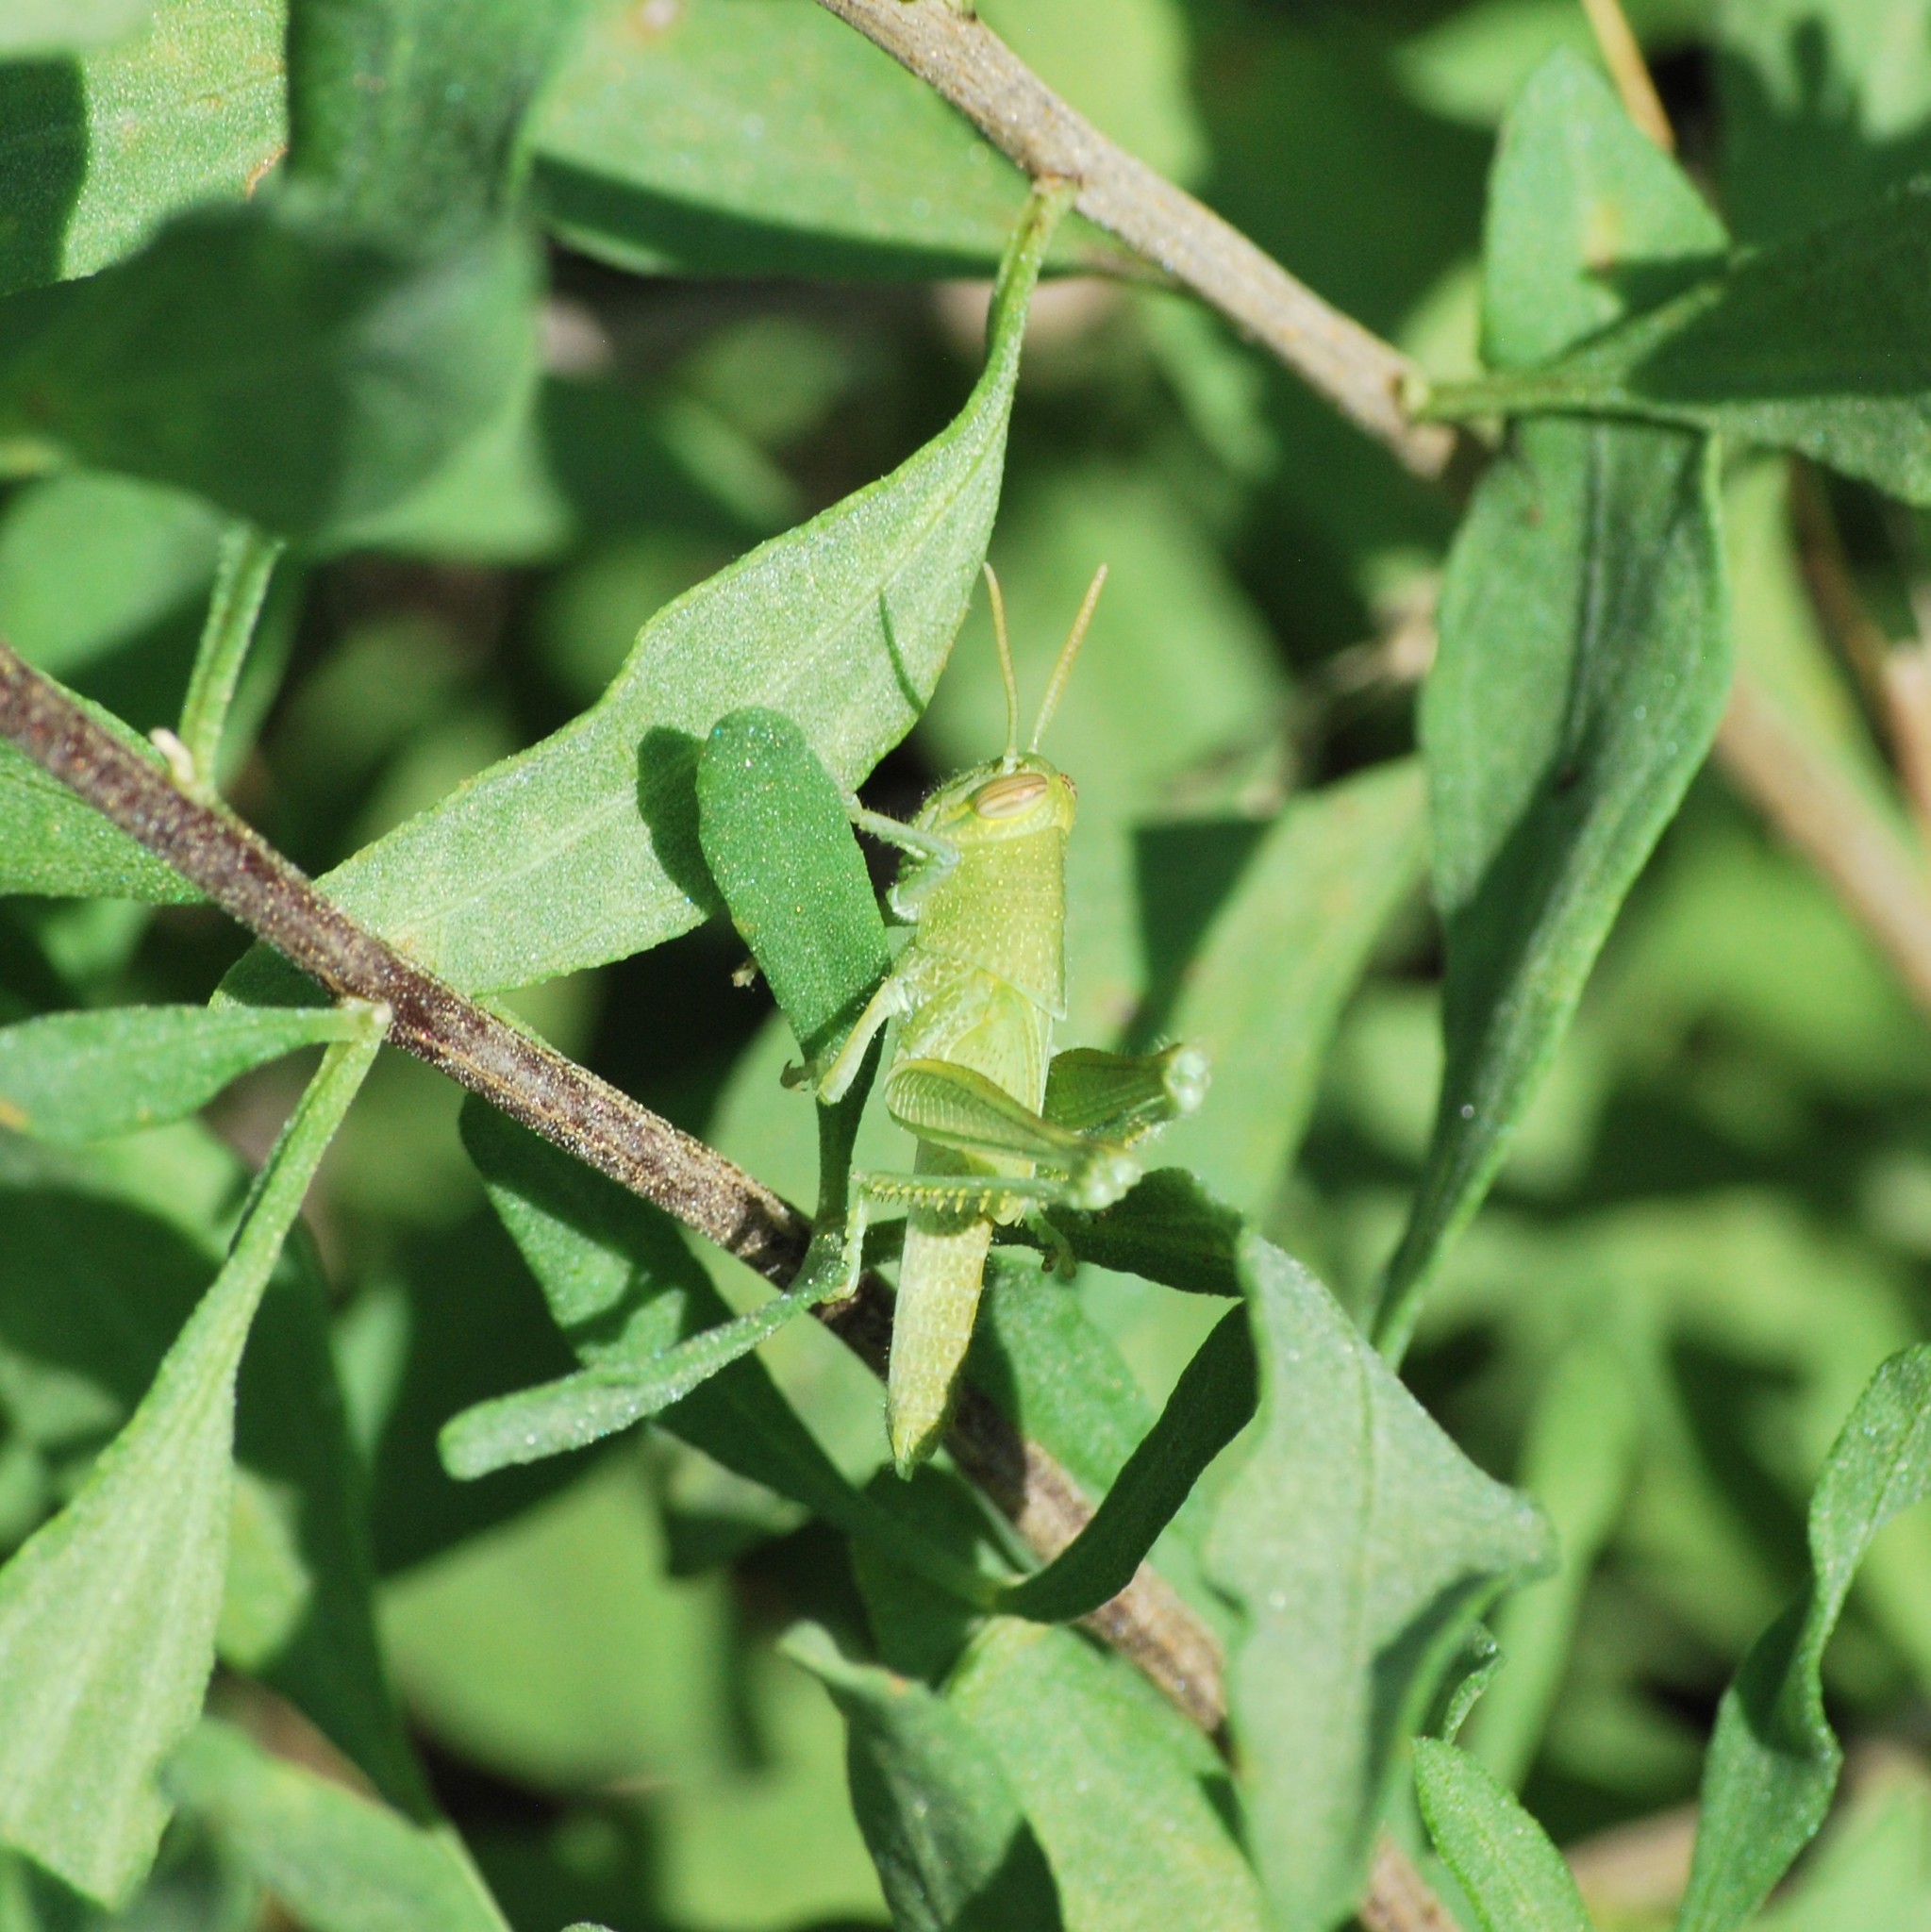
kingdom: Animalia
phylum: Arthropoda
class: Insecta
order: Orthoptera
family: Acrididae
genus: Schistocerca
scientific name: Schistocerca nitens
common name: Vagrant grasshopper
